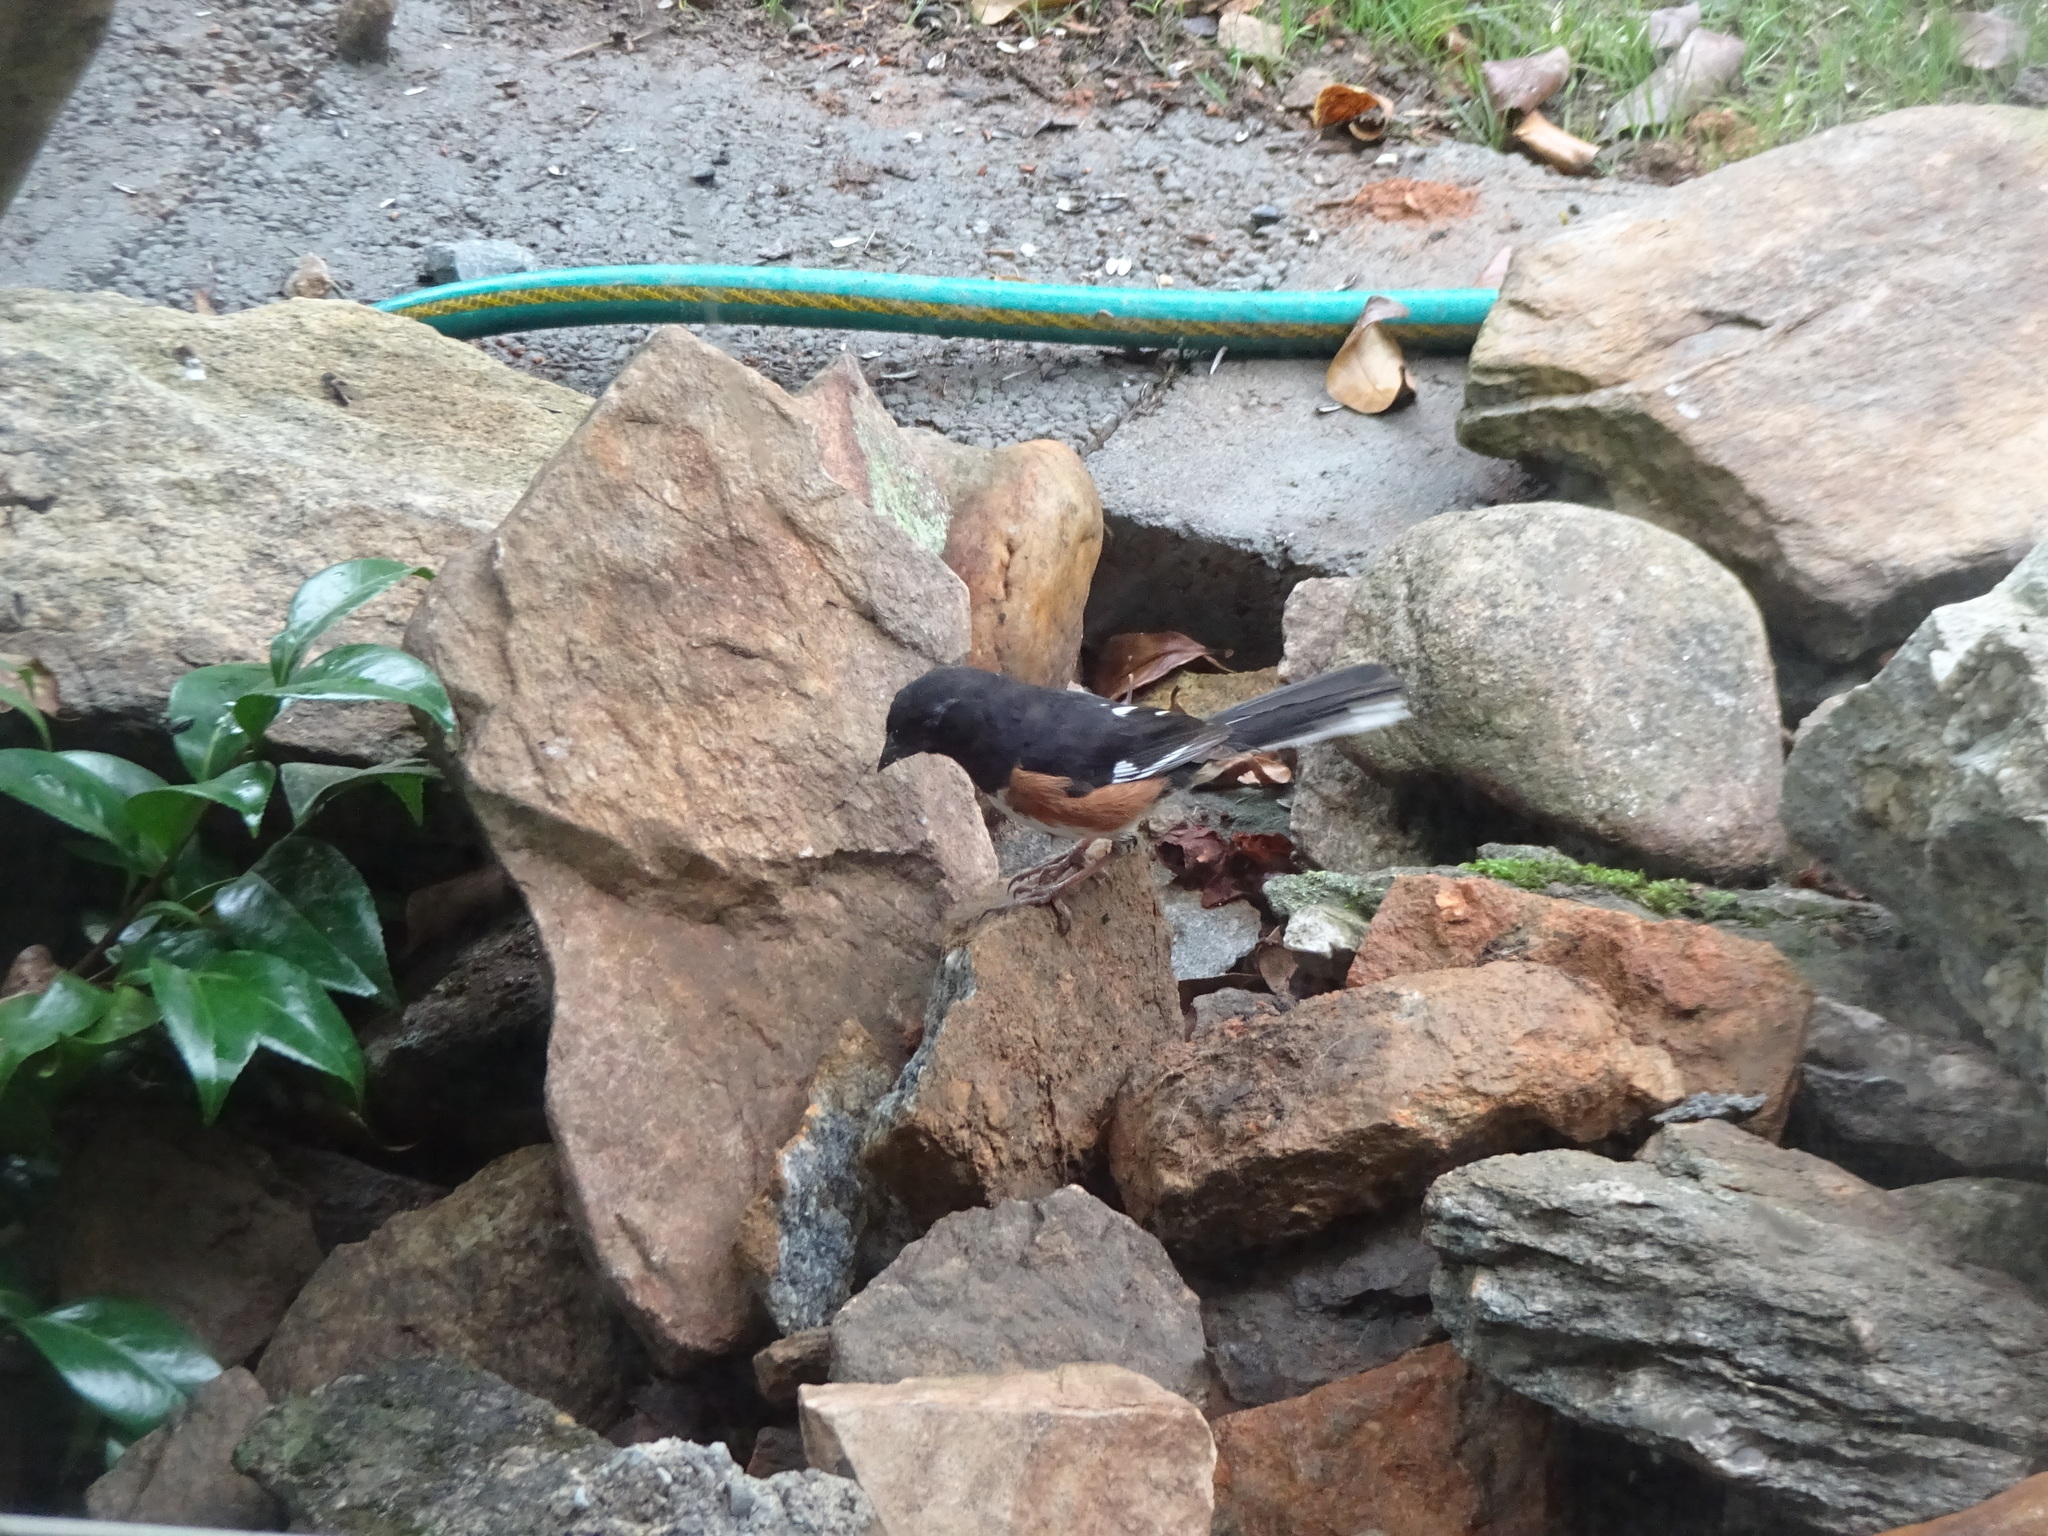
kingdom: Animalia
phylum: Chordata
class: Aves
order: Passeriformes
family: Passerellidae
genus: Pipilo
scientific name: Pipilo erythrophthalmus
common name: Eastern towhee
